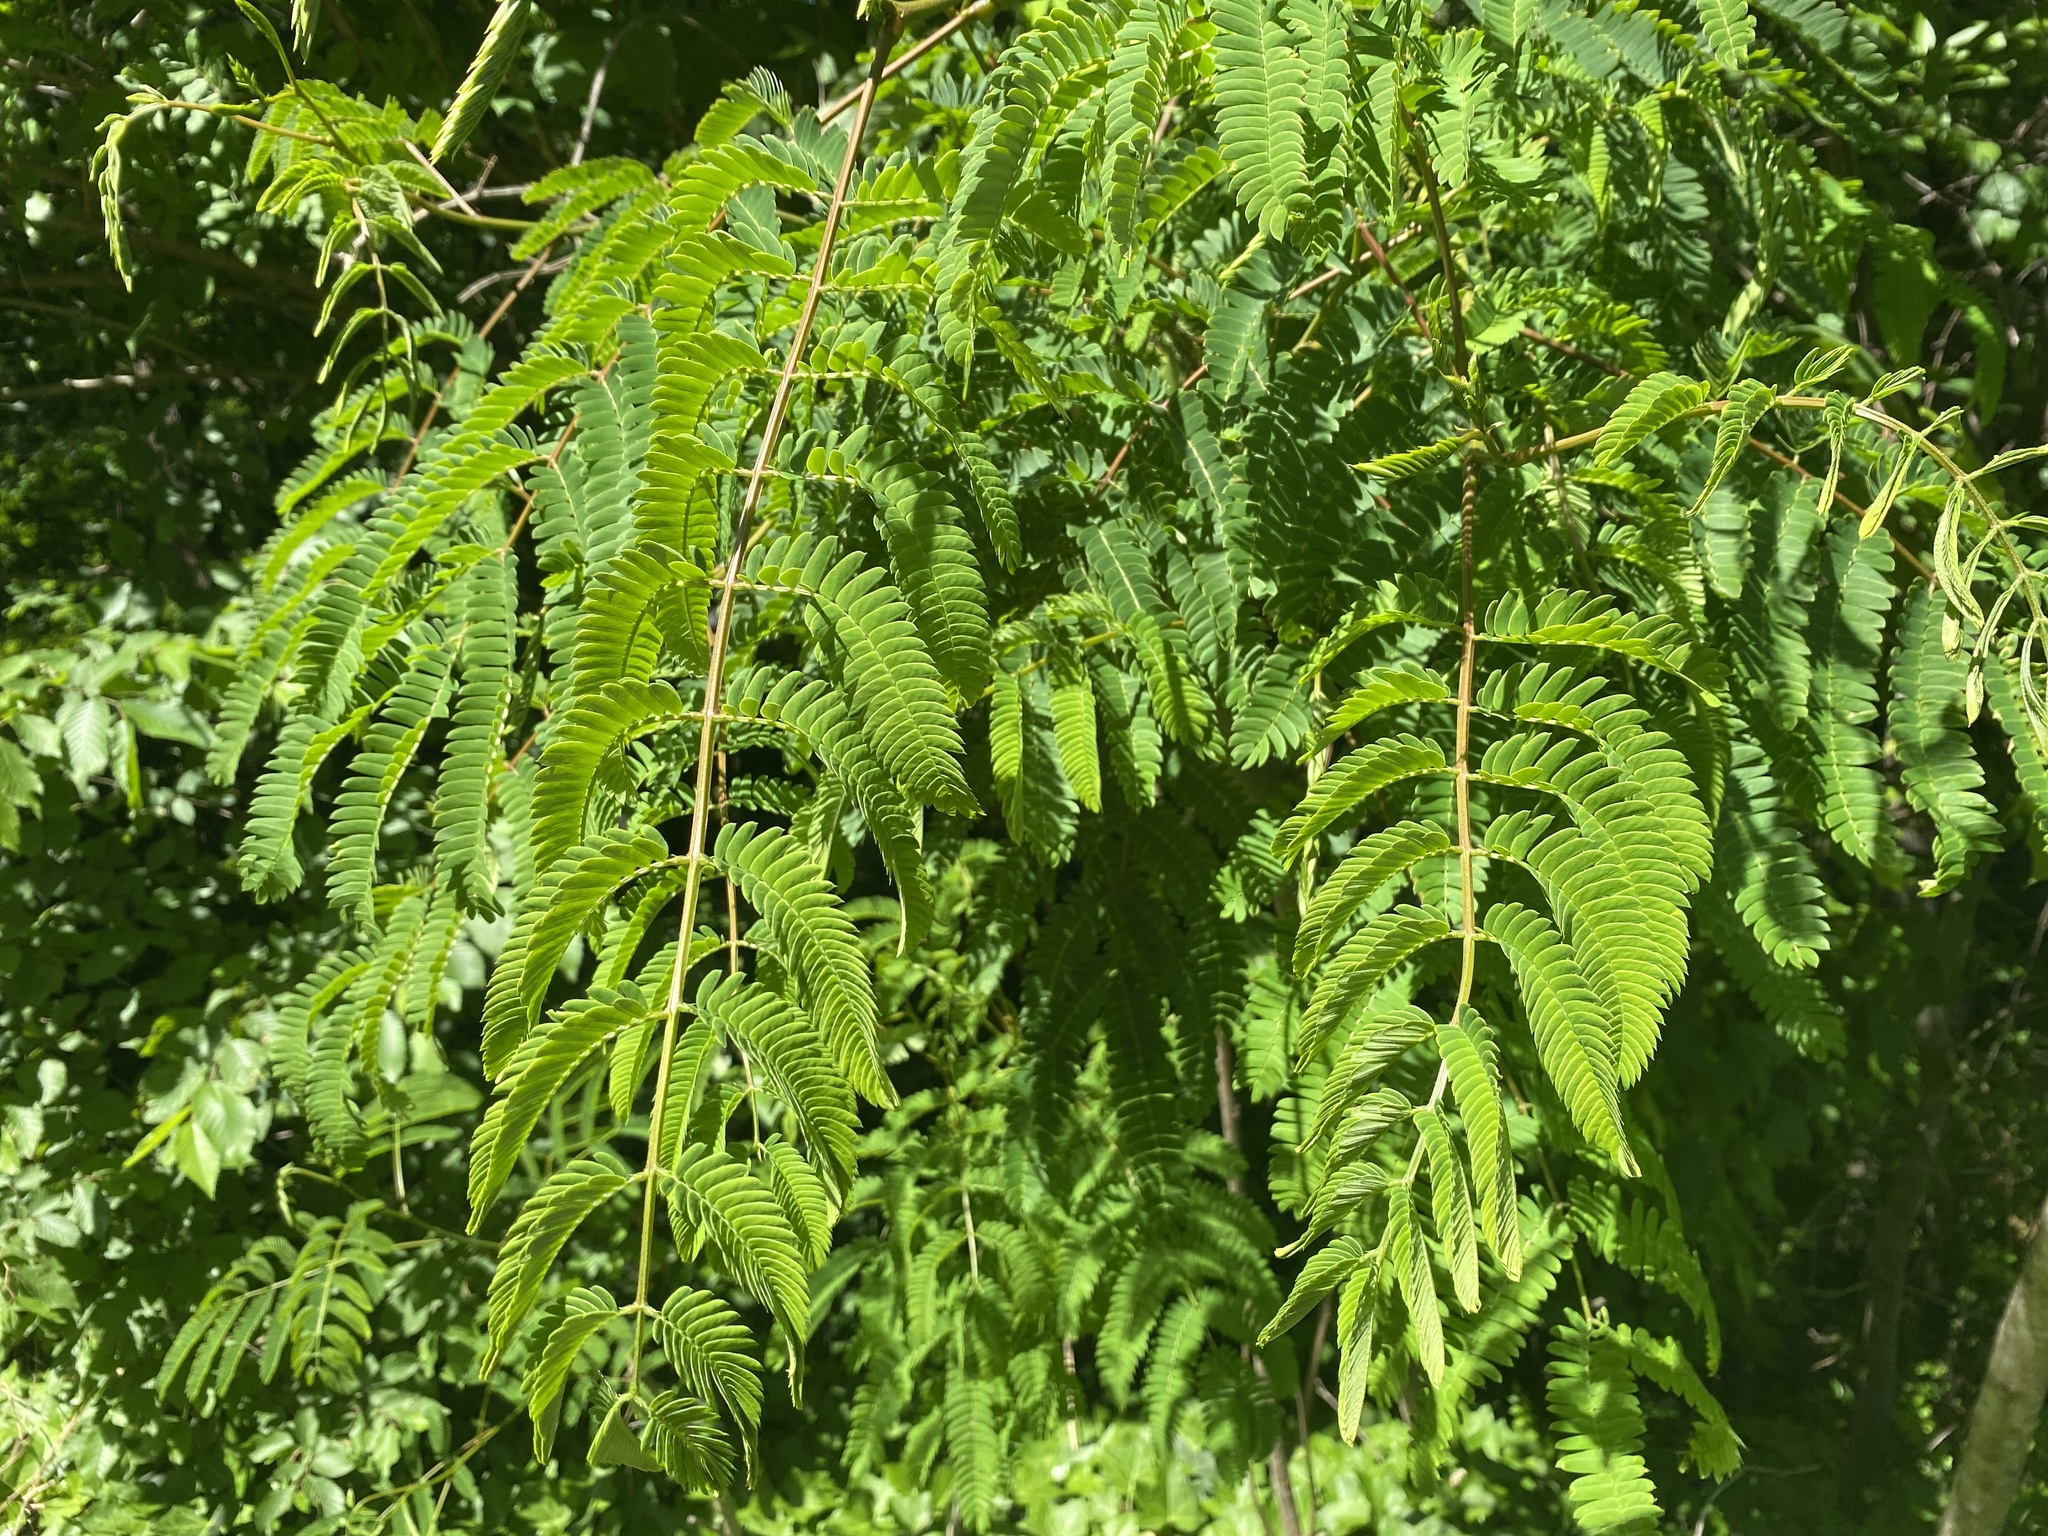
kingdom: Plantae
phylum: Tracheophyta
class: Magnoliopsida
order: Fabales
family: Fabaceae
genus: Albizia
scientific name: Albizia julibrissin
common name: Silktree
